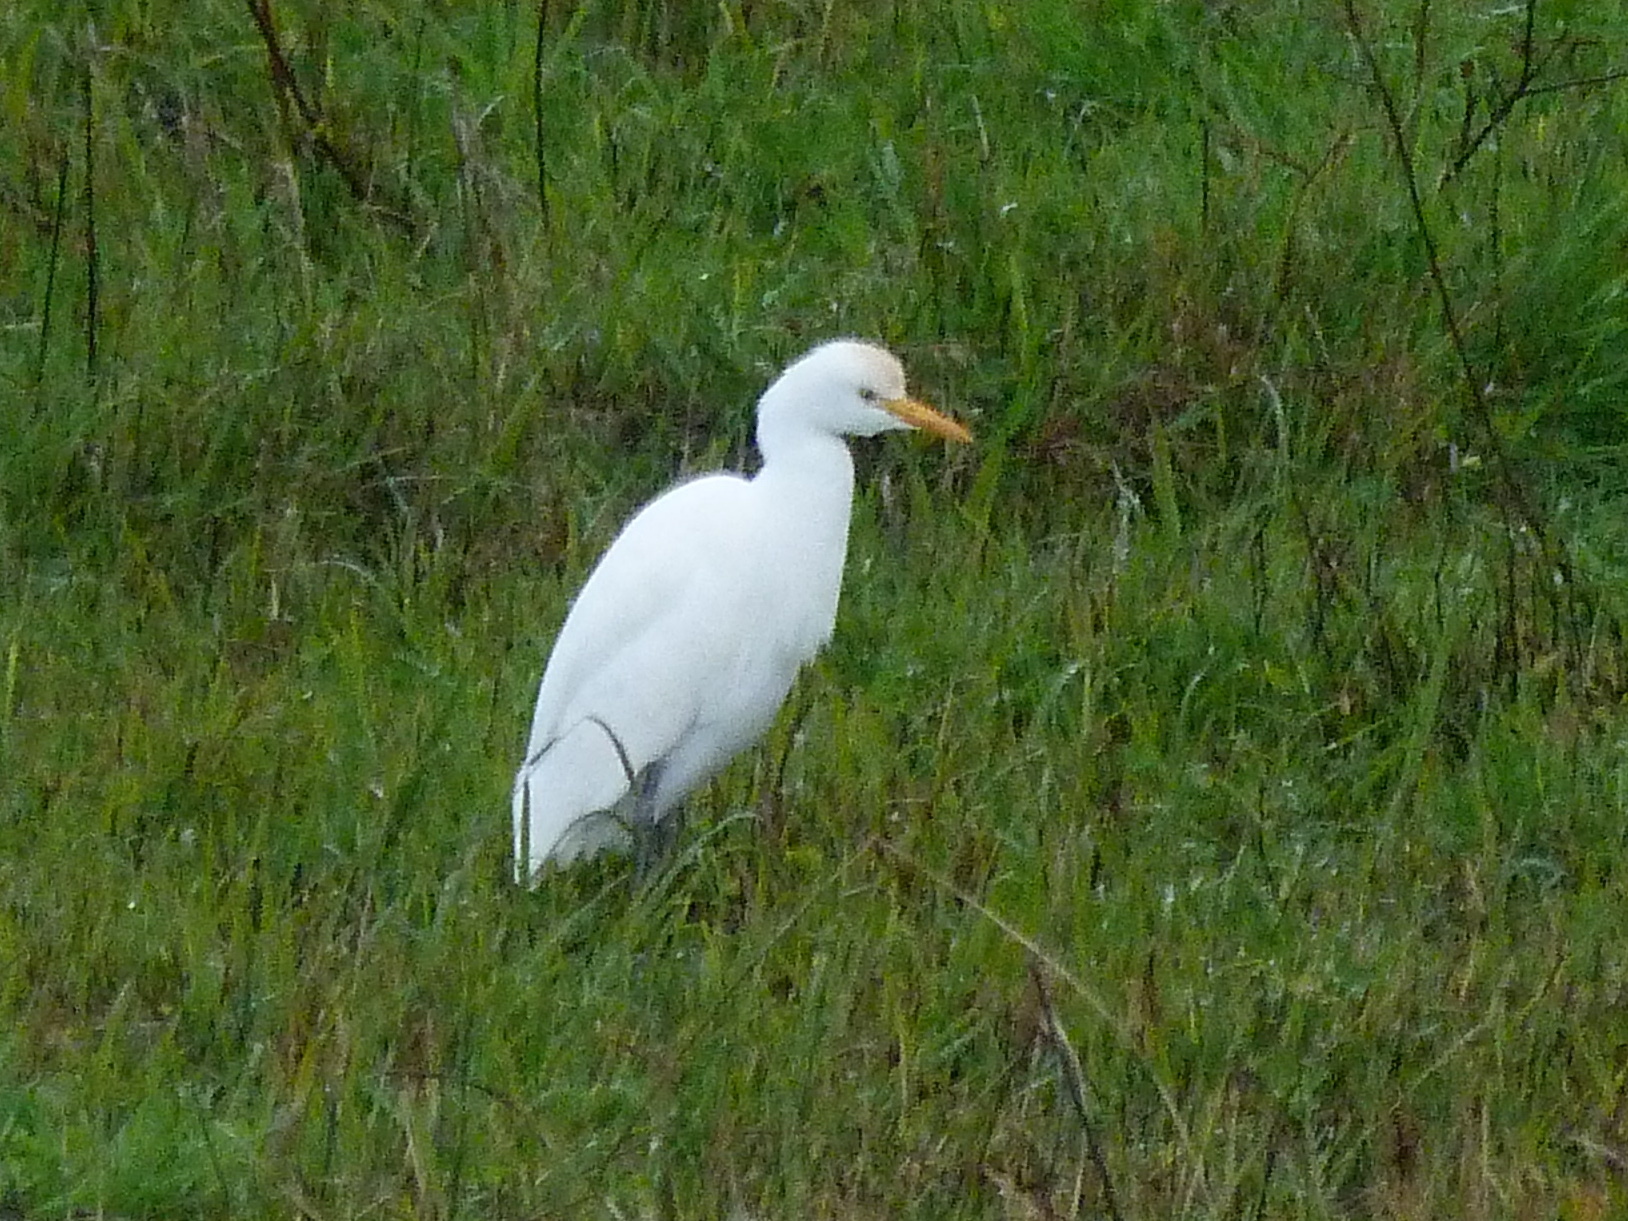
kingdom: Animalia
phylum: Chordata
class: Aves
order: Pelecaniformes
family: Ardeidae
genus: Bubulcus
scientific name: Bubulcus ibis
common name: Cattle egret
